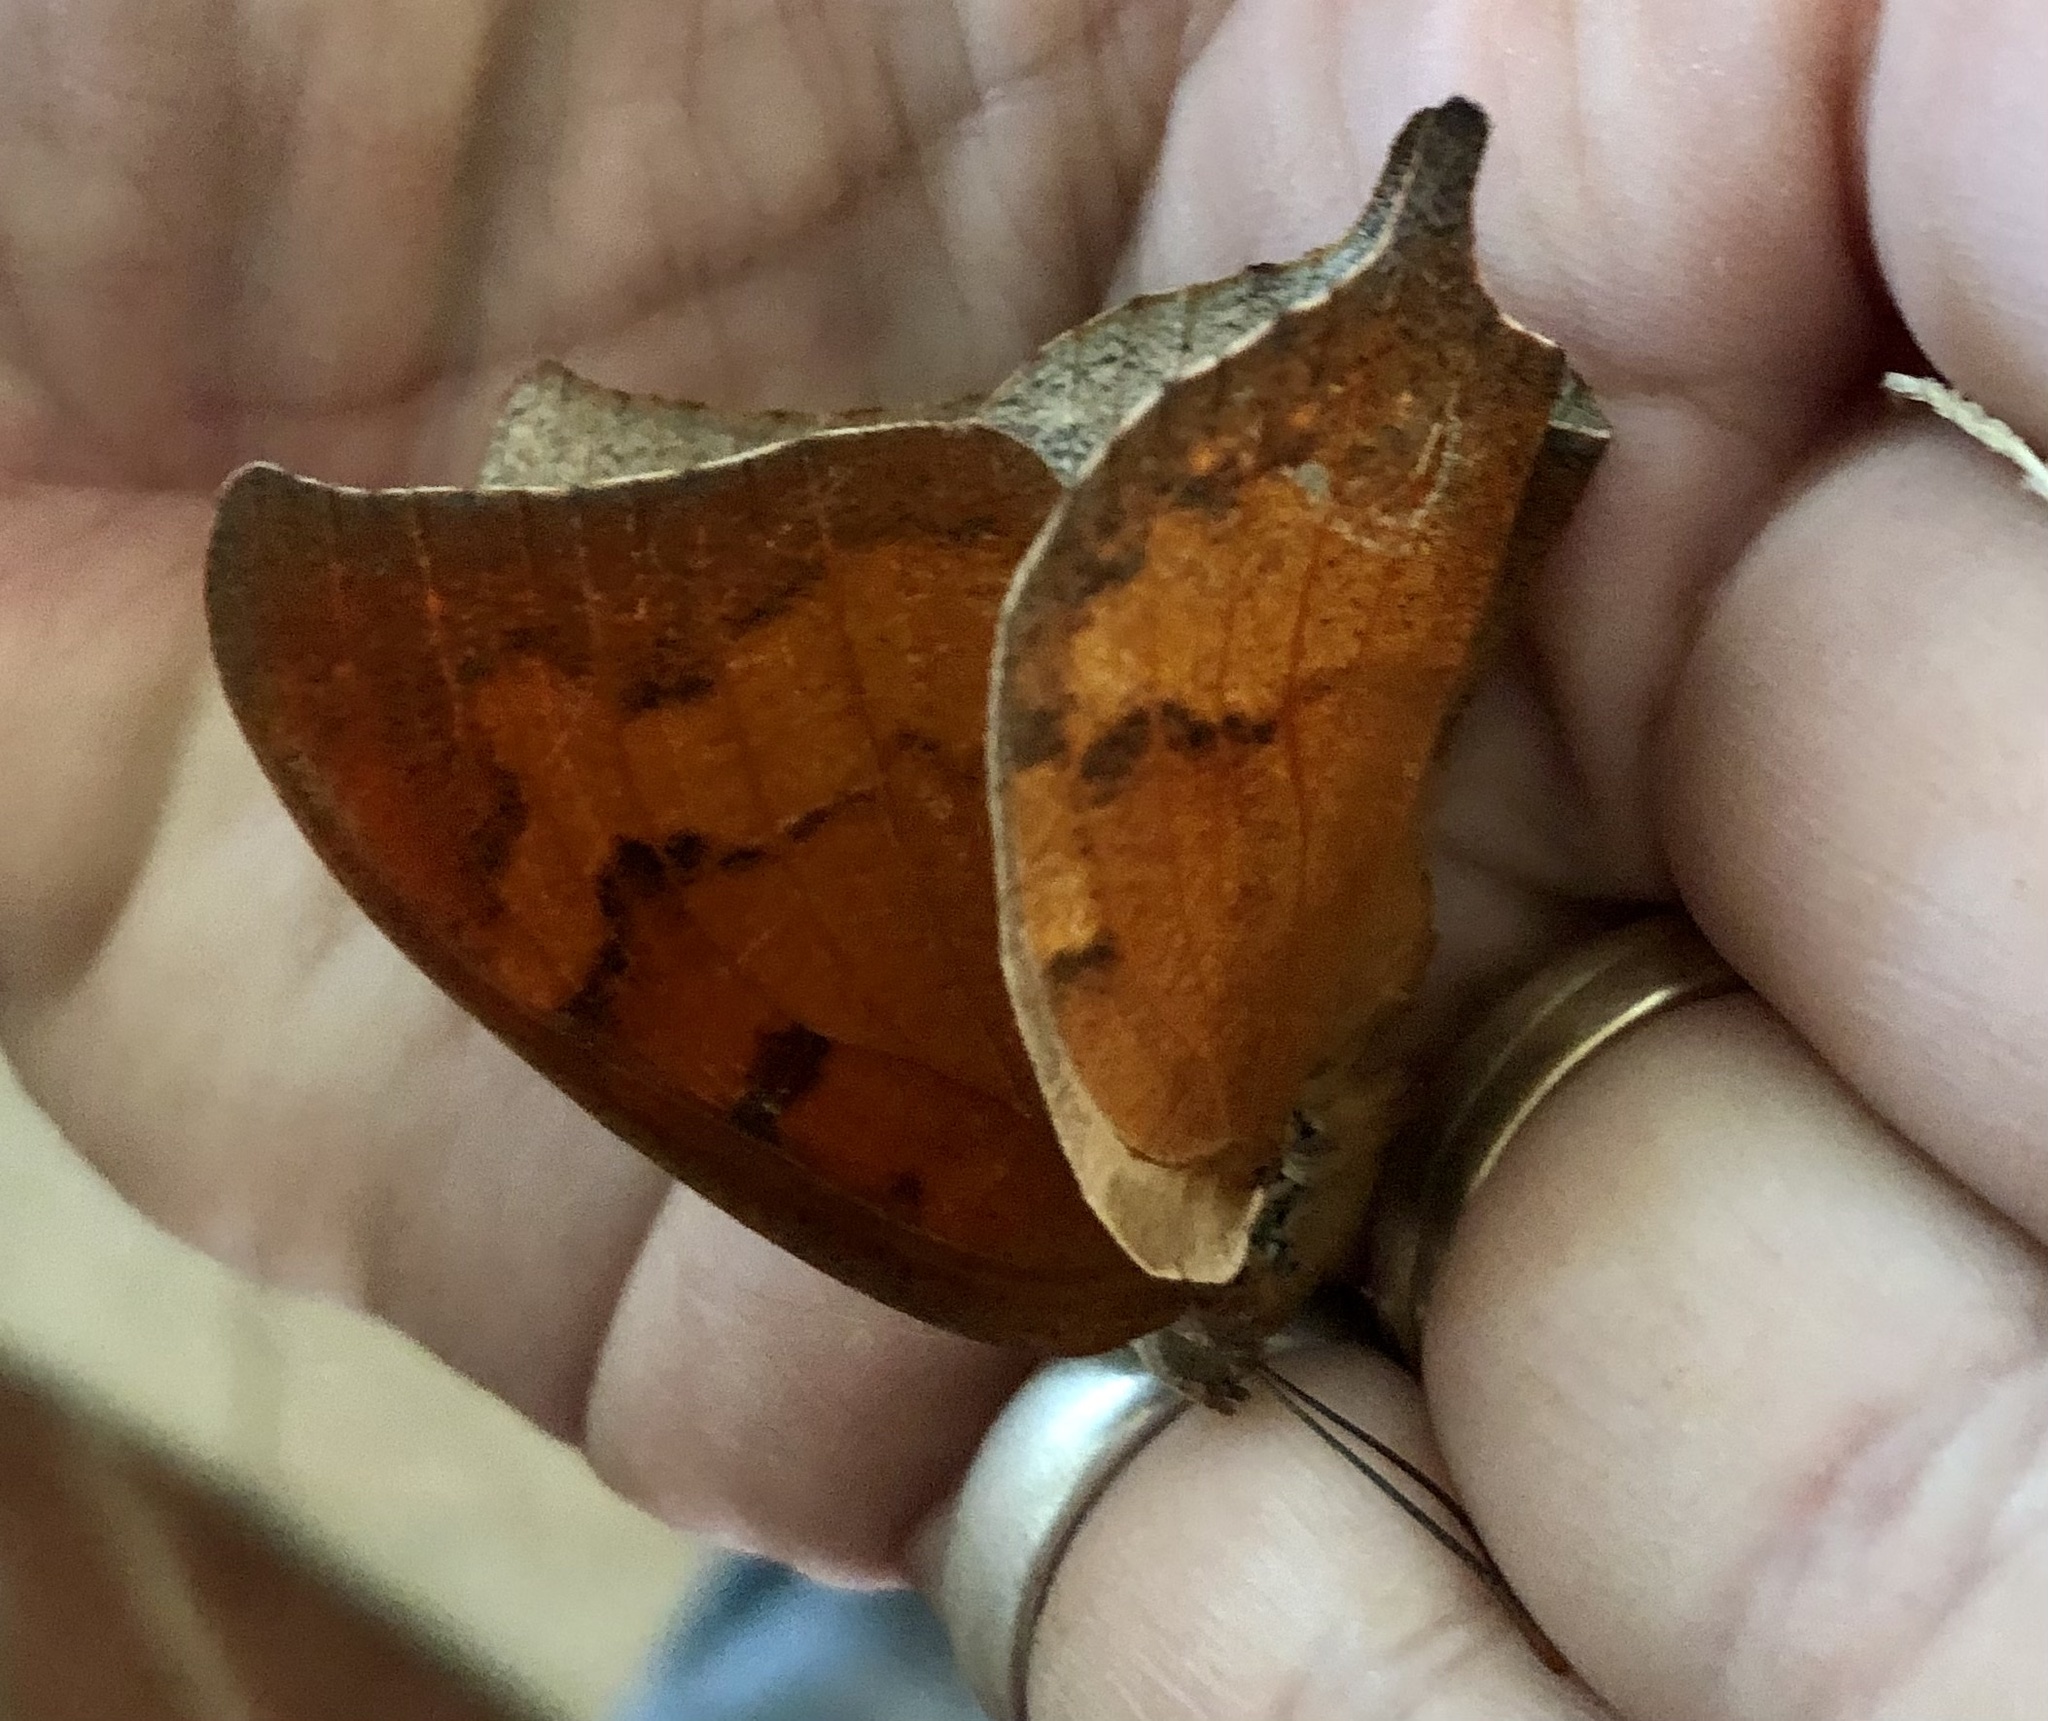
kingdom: Animalia
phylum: Arthropoda
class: Insecta
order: Lepidoptera
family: Nymphalidae
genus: Anaea
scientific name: Anaea andria
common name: Goatweed leafwing
